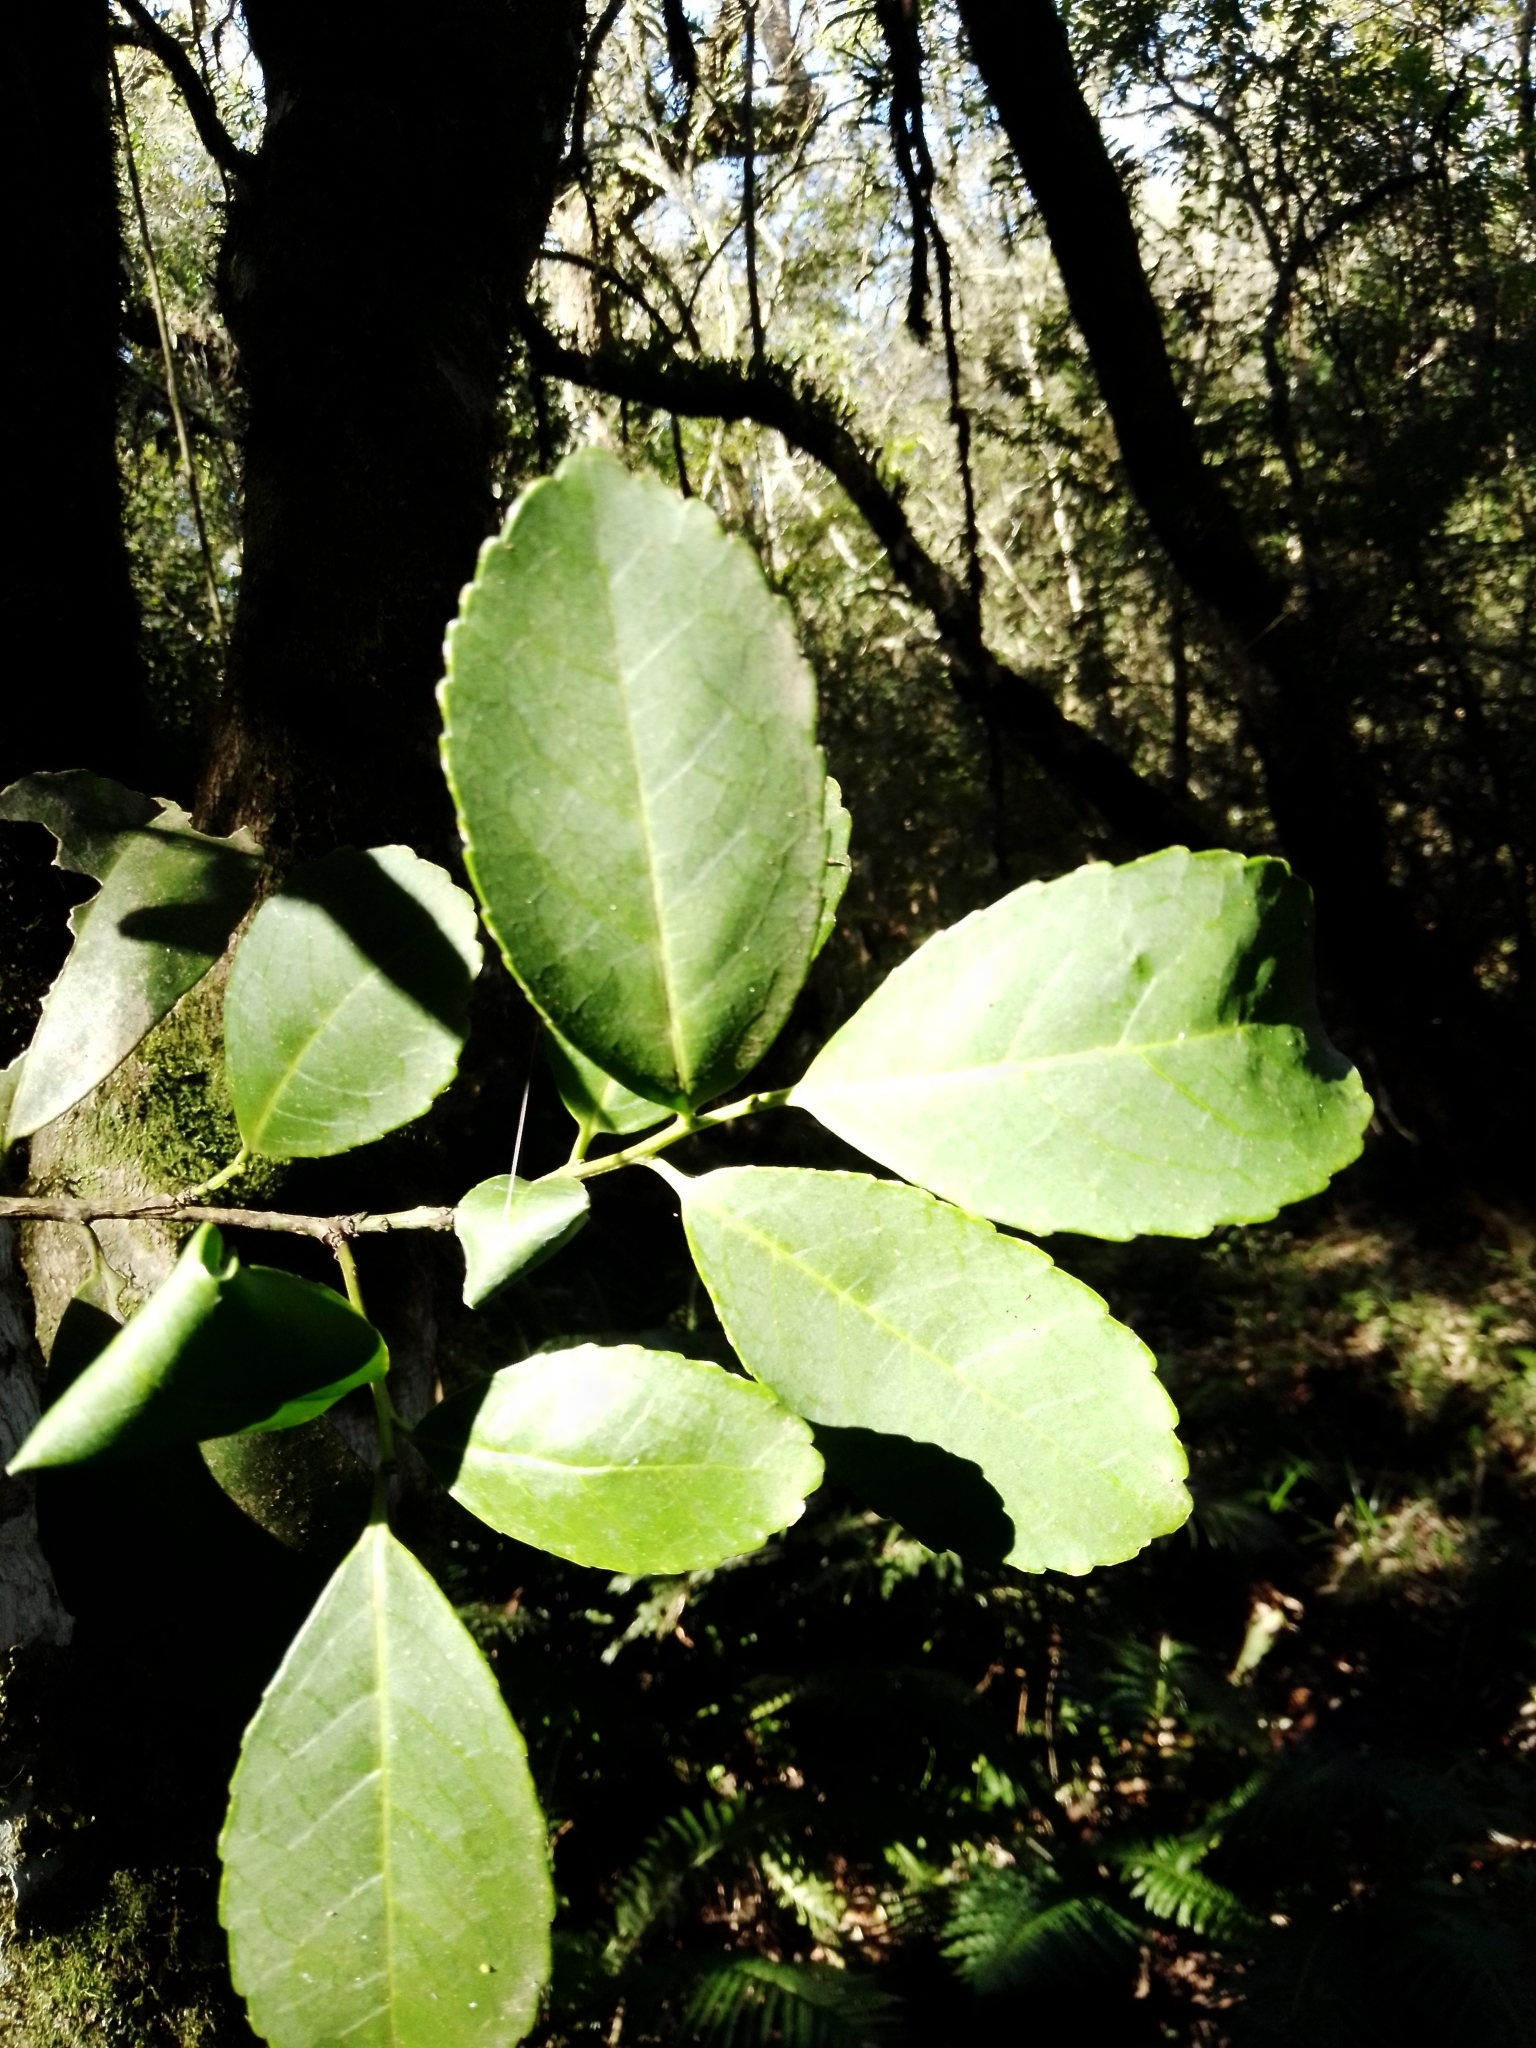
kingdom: Plantae
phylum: Tracheophyta
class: Magnoliopsida
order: Aquifoliales
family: Aquifoliaceae
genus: Ilex
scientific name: Ilex paraguariensis
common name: Paraguay tea
